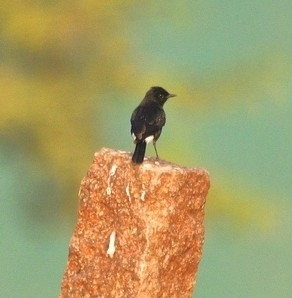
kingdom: Animalia
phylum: Chordata
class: Aves
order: Passeriformes
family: Muscicapidae
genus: Saxicola
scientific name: Saxicola caprata
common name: Pied bush chat
